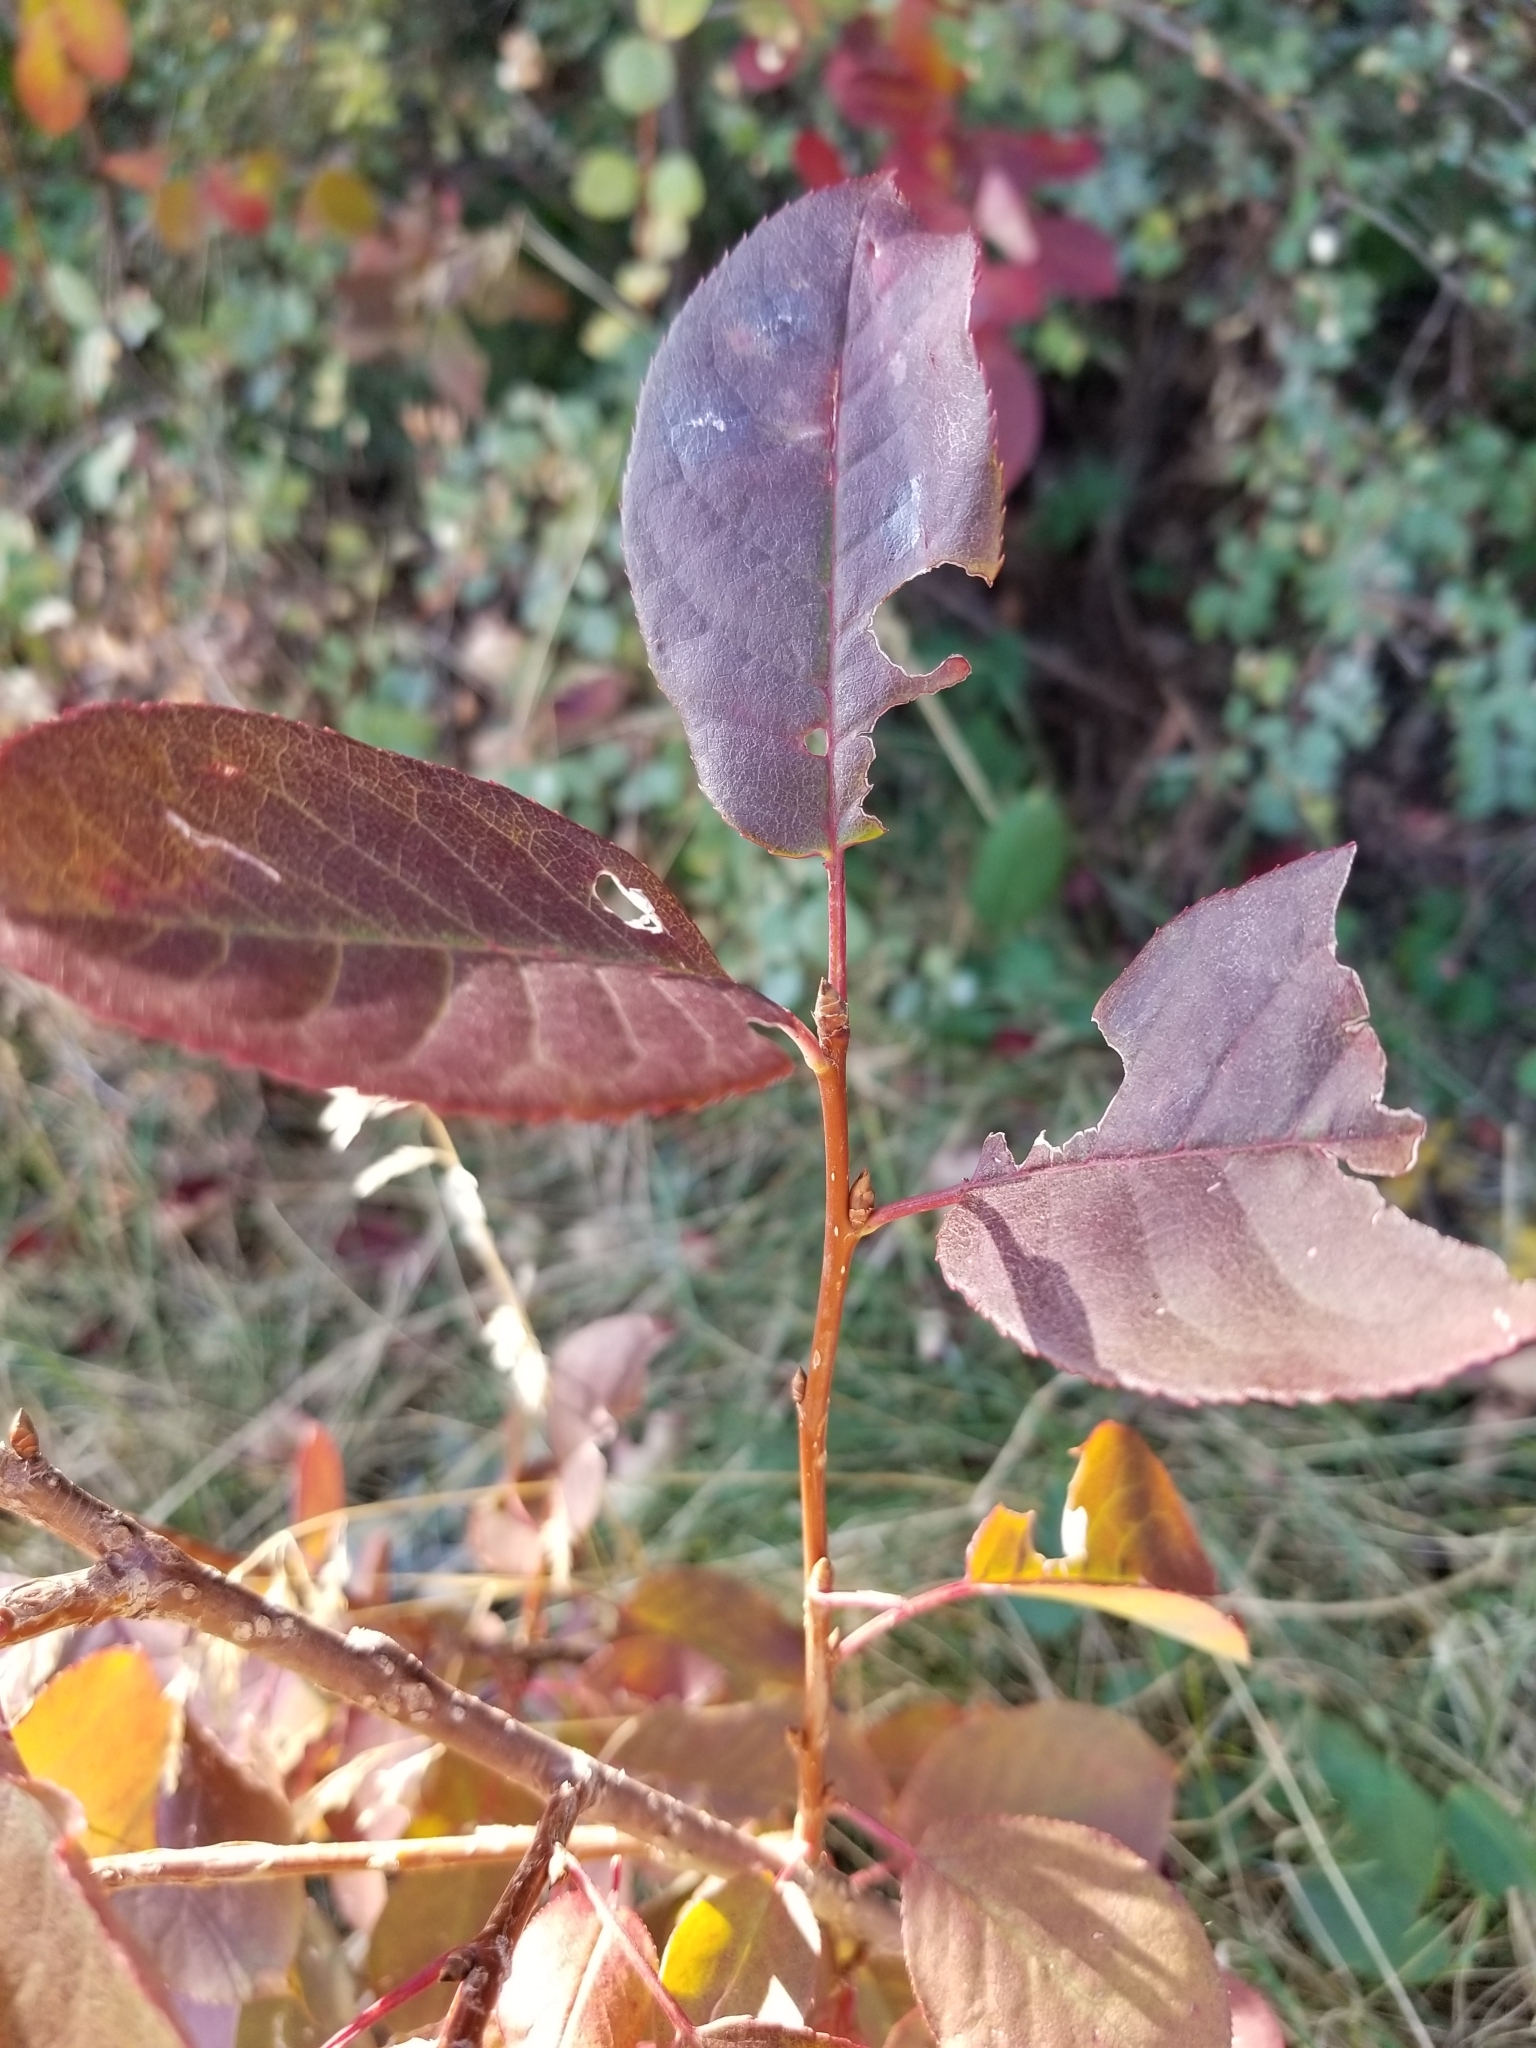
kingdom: Plantae
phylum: Tracheophyta
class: Magnoliopsida
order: Rosales
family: Rosaceae
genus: Prunus
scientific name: Prunus virginiana
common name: Chokecherry
